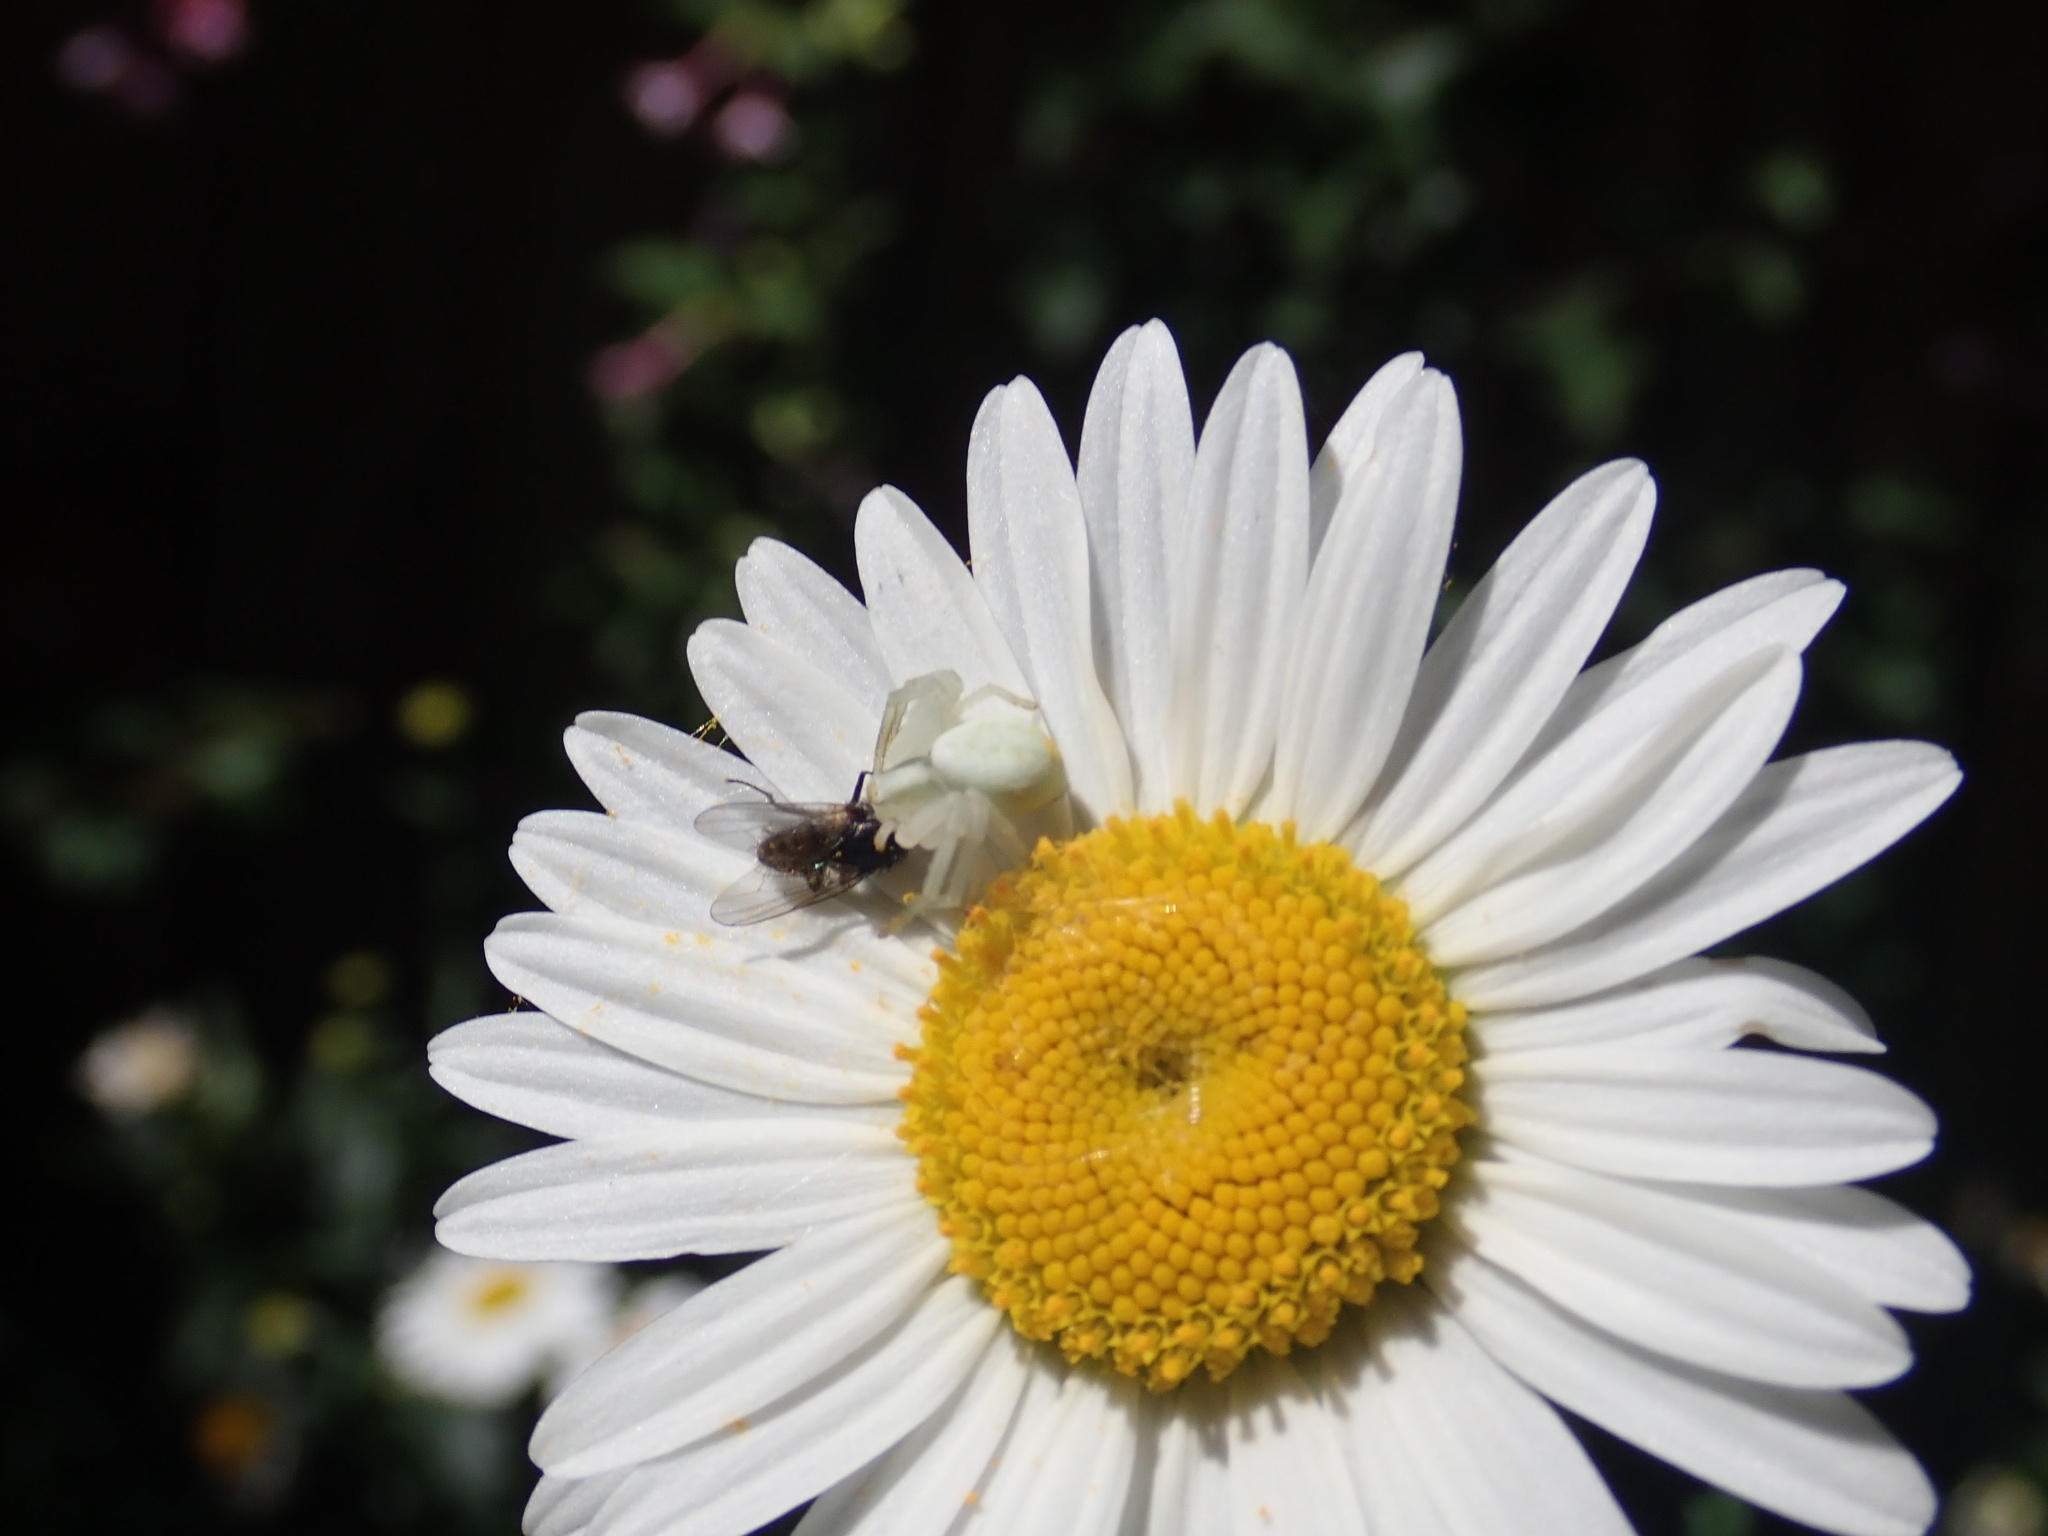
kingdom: Animalia
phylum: Arthropoda
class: Arachnida
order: Araneae
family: Thomisidae
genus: Misumena
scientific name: Misumena vatia
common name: Goldenrod crab spider
